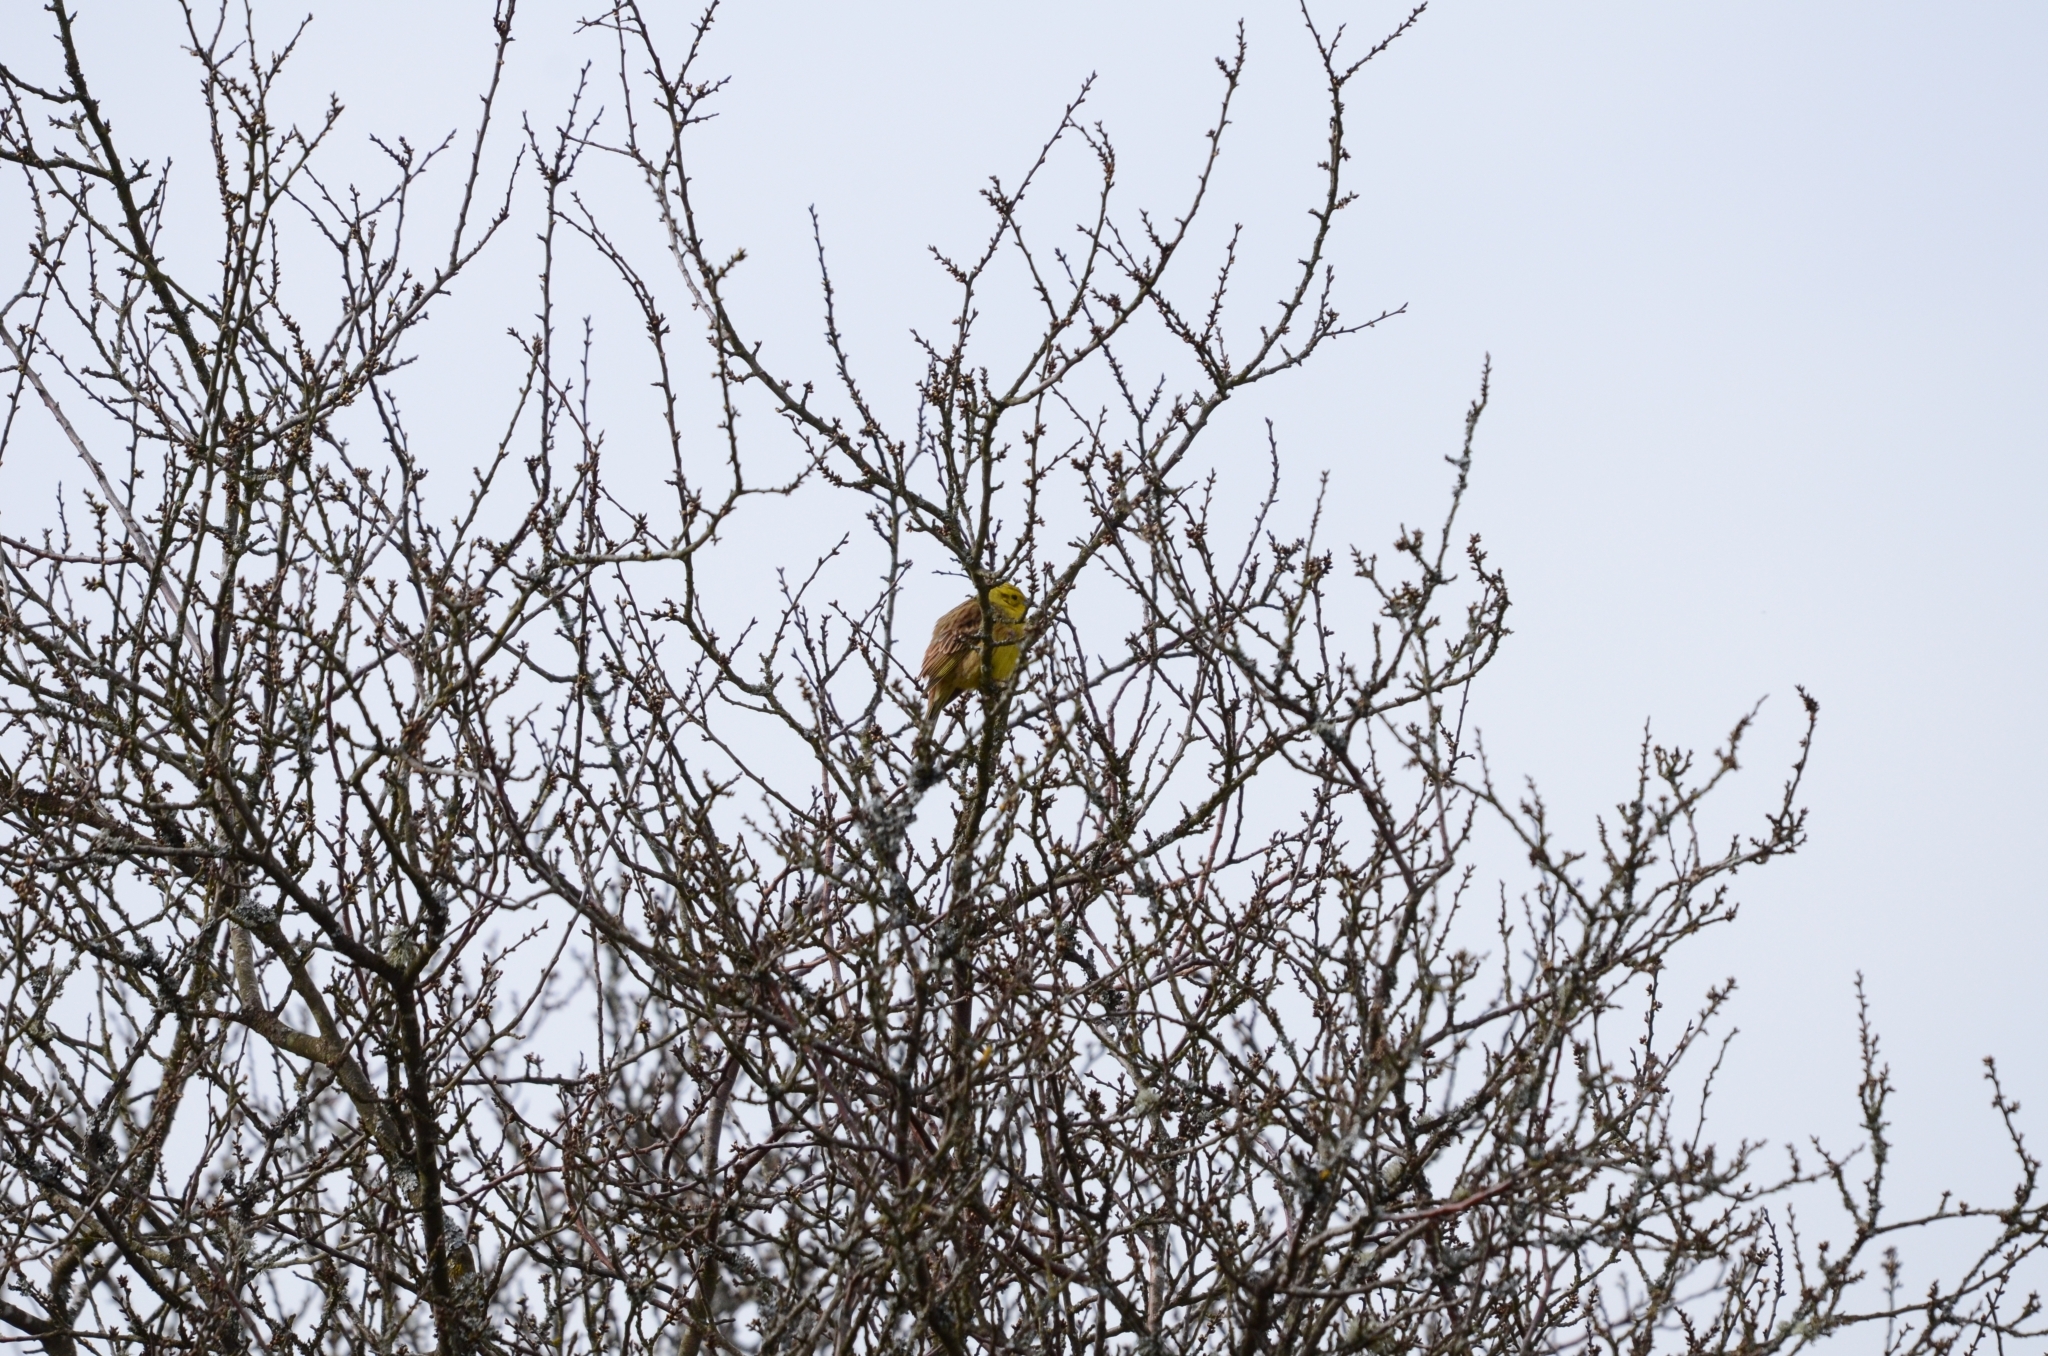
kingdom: Animalia
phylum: Chordata
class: Aves
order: Passeriformes
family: Emberizidae
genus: Emberiza
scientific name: Emberiza citrinella
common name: Yellowhammer
